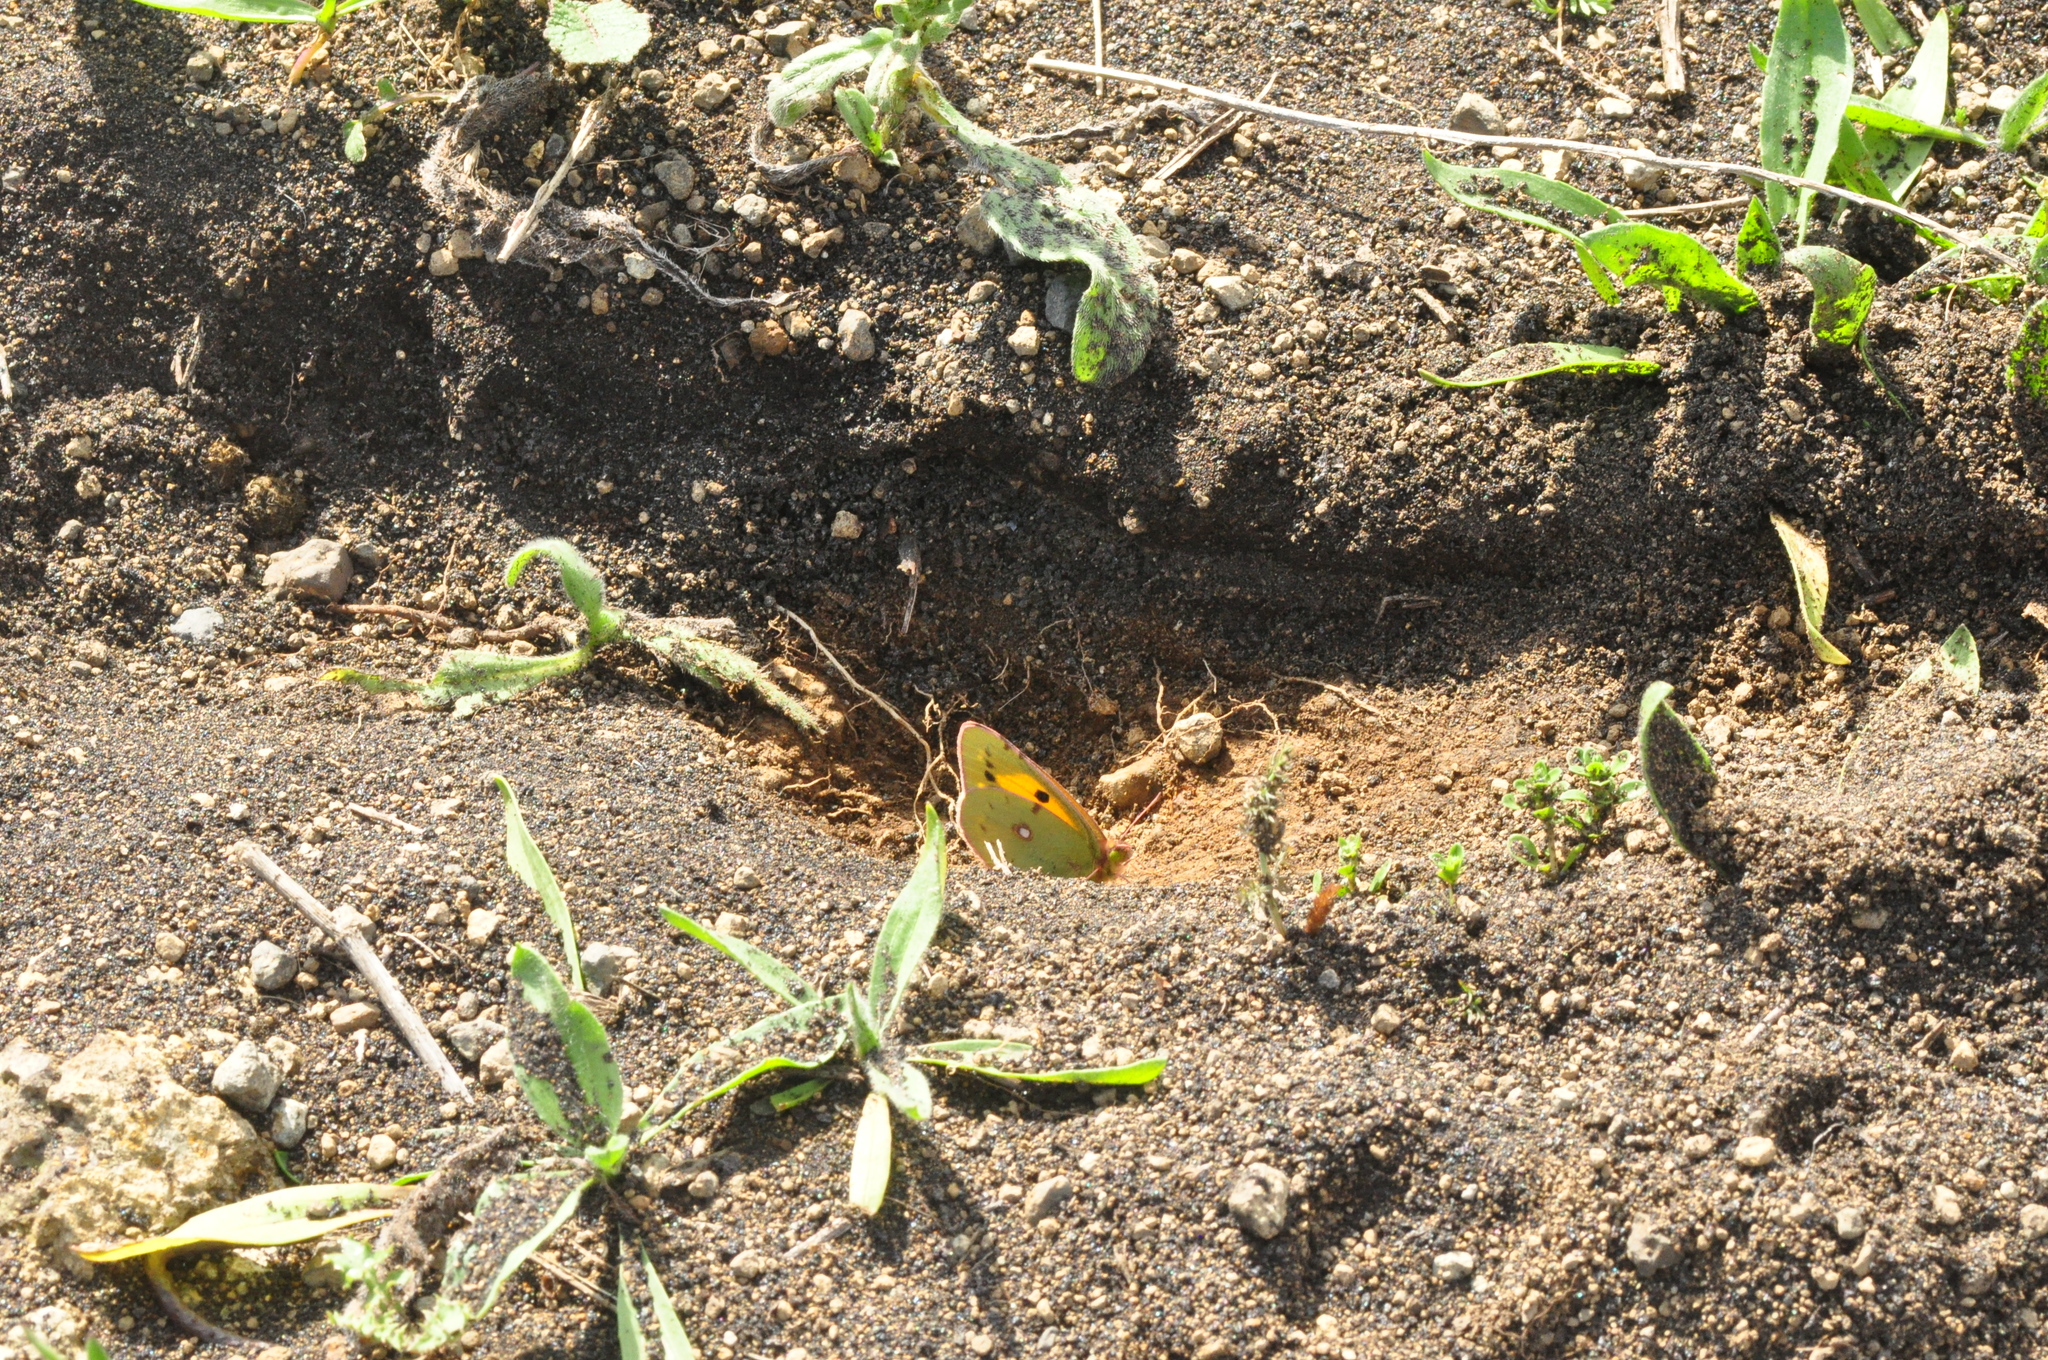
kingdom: Animalia
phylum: Arthropoda
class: Insecta
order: Lepidoptera
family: Pieridae
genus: Colias
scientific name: Colias croceus
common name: Clouded yellow
